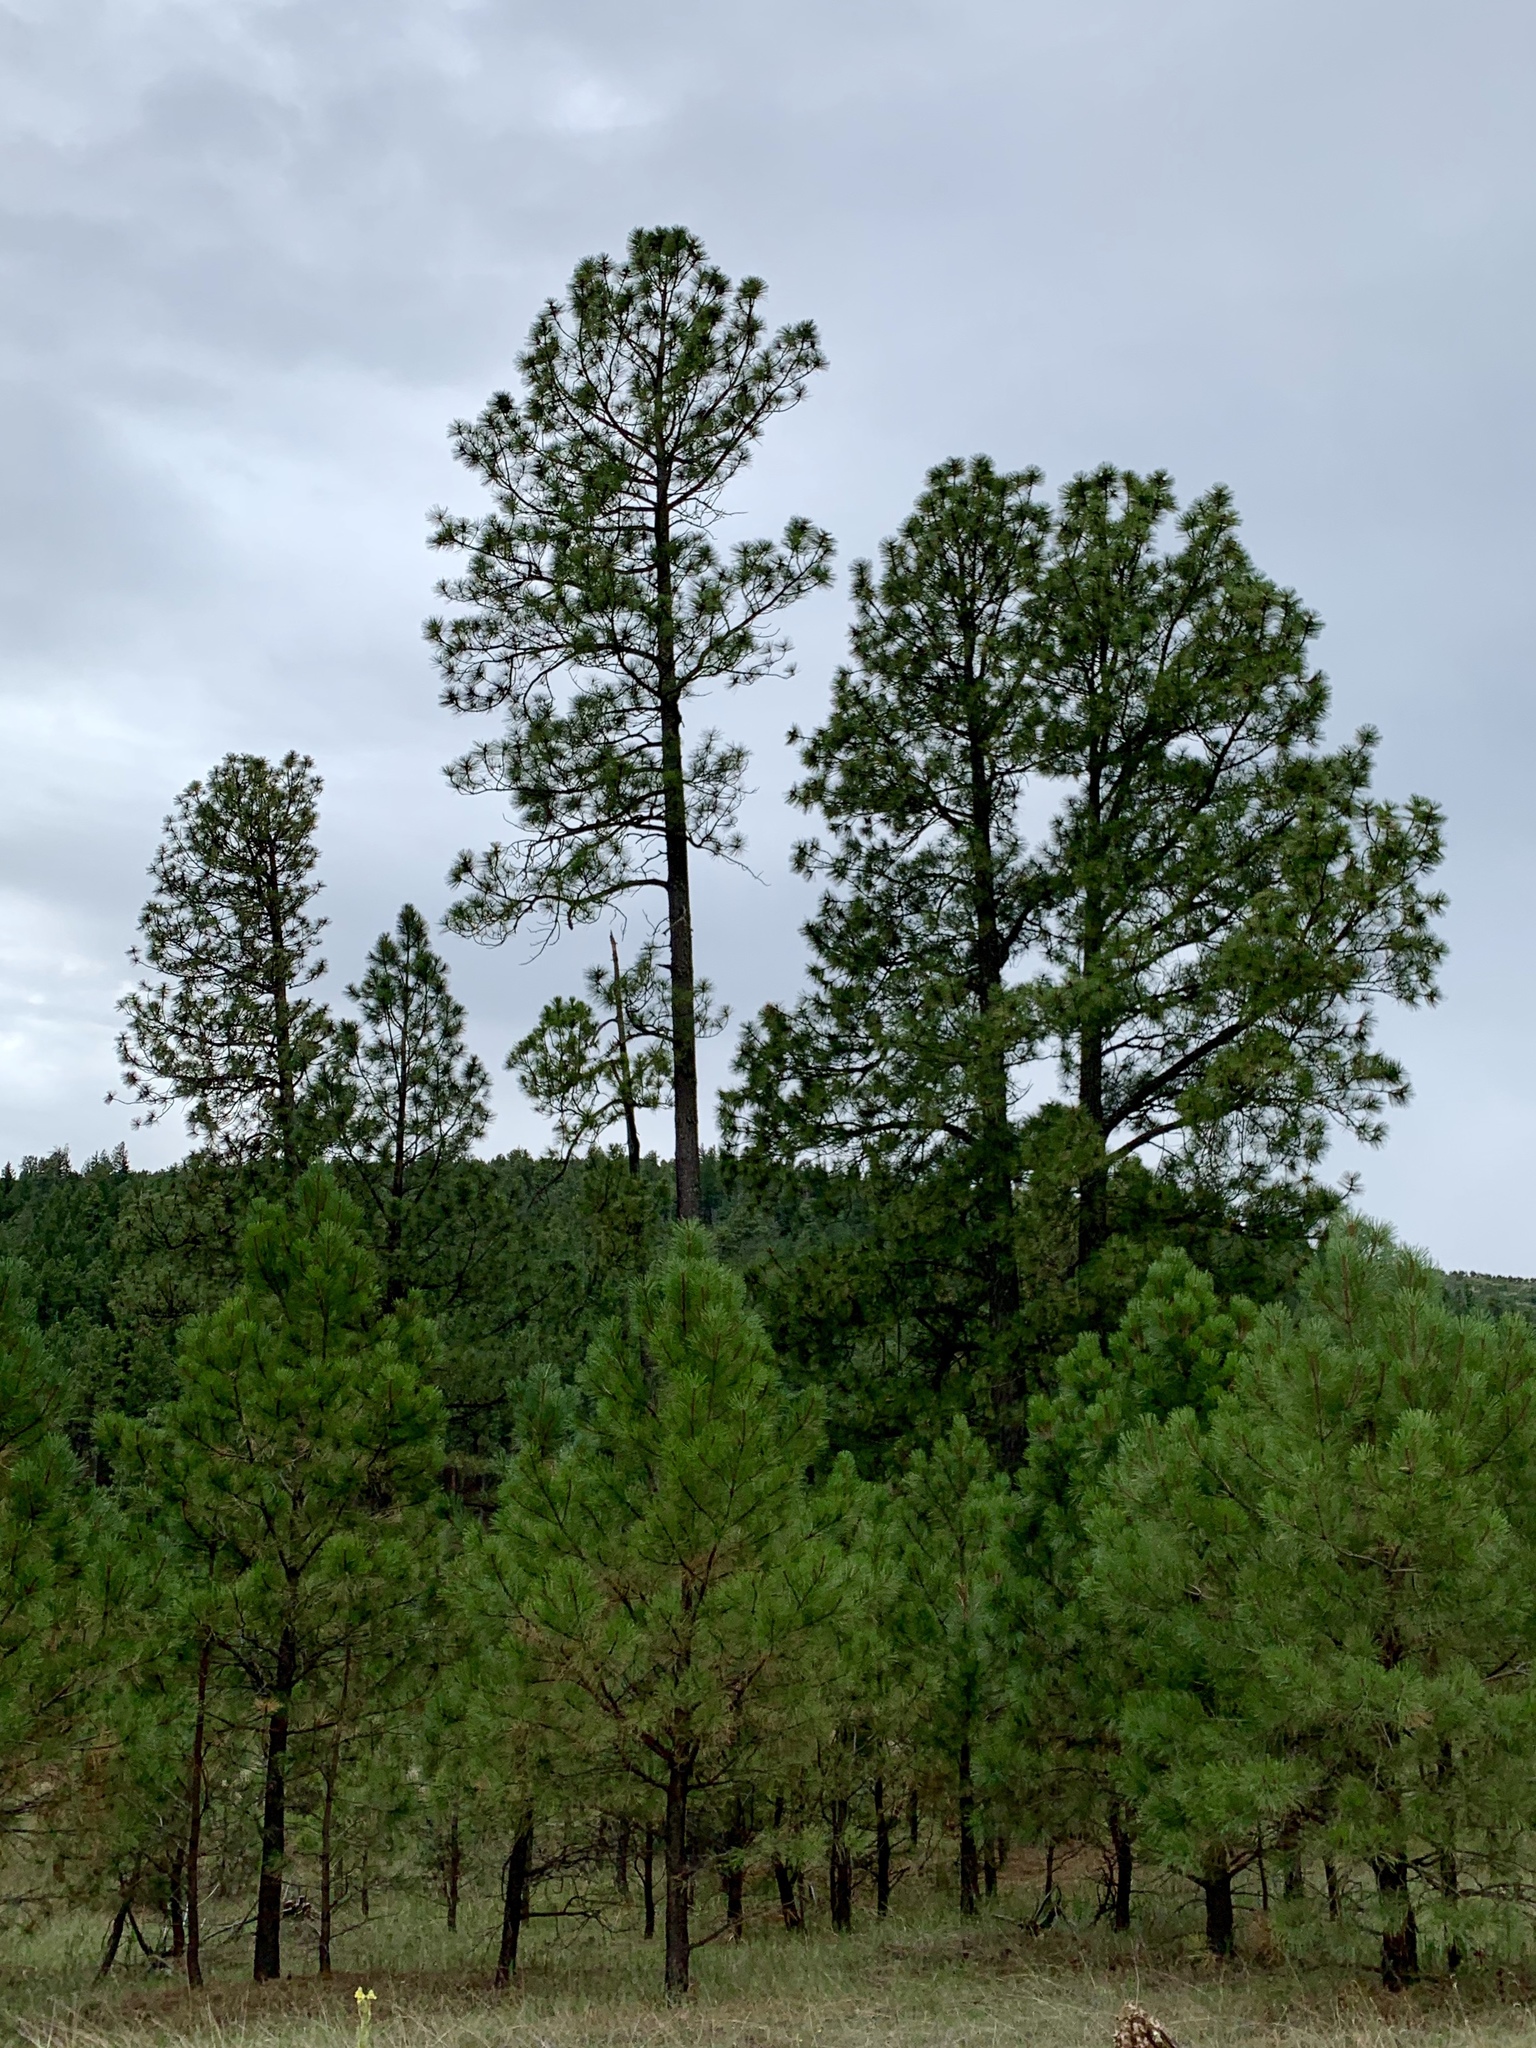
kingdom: Plantae
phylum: Tracheophyta
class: Pinopsida
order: Pinales
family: Pinaceae
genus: Pinus
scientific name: Pinus ponderosa
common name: Western yellow-pine
